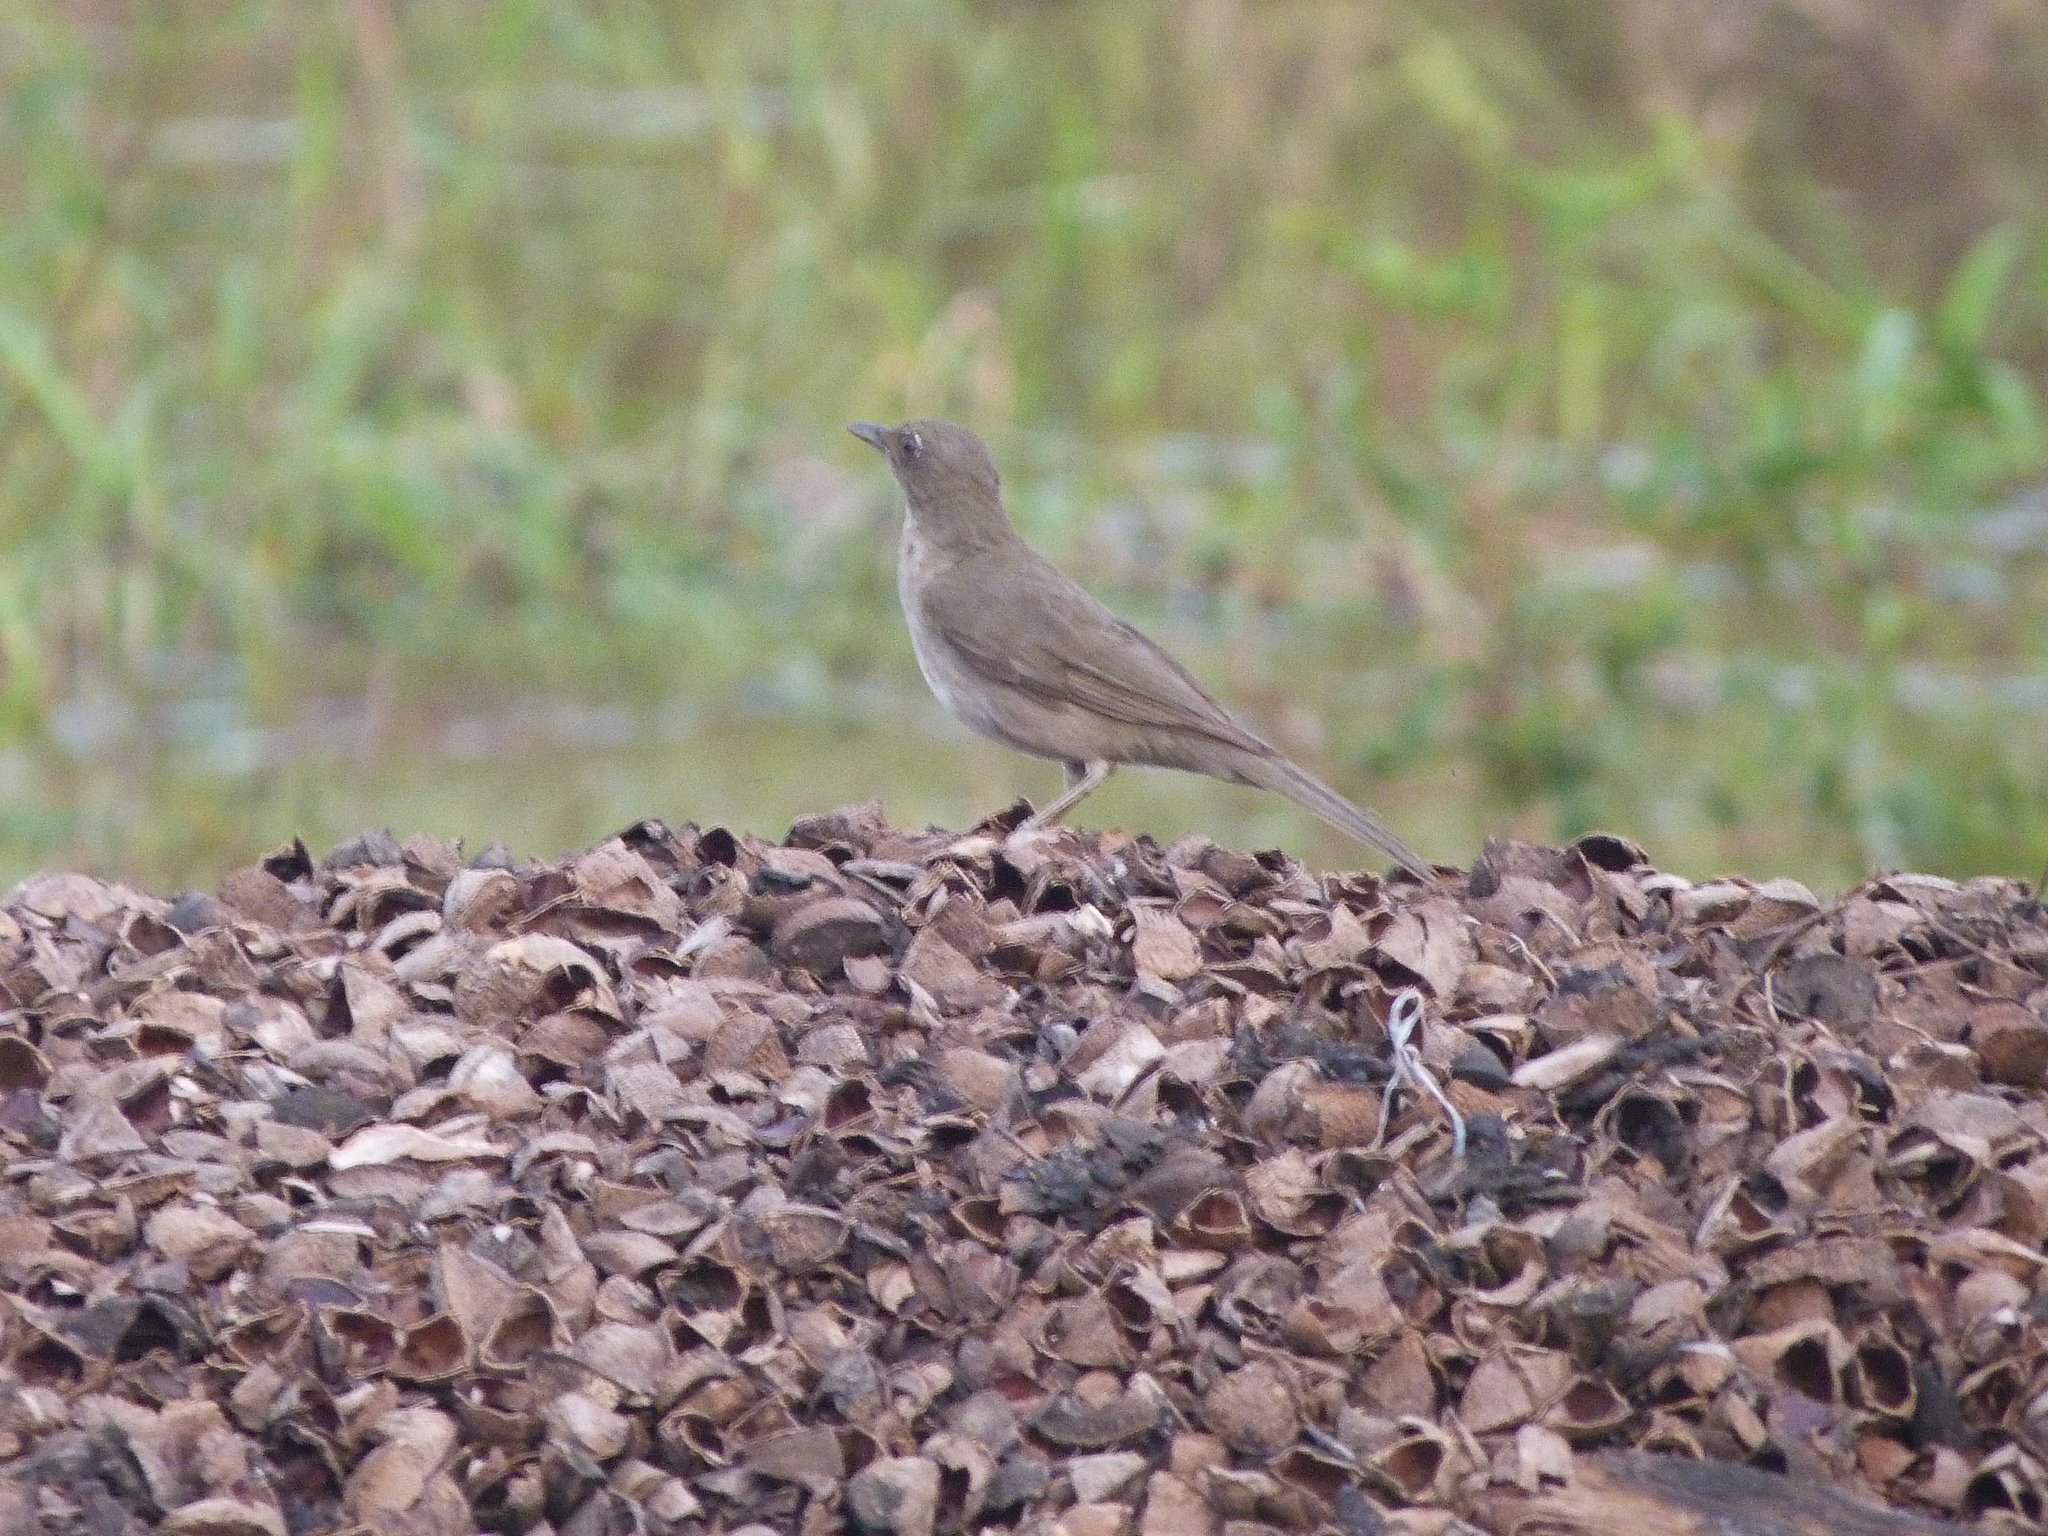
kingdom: Animalia
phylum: Chordata
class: Aves
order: Passeriformes
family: Turdidae
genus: Turdus
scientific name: Turdus ignobilis
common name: Black-billed thrush
